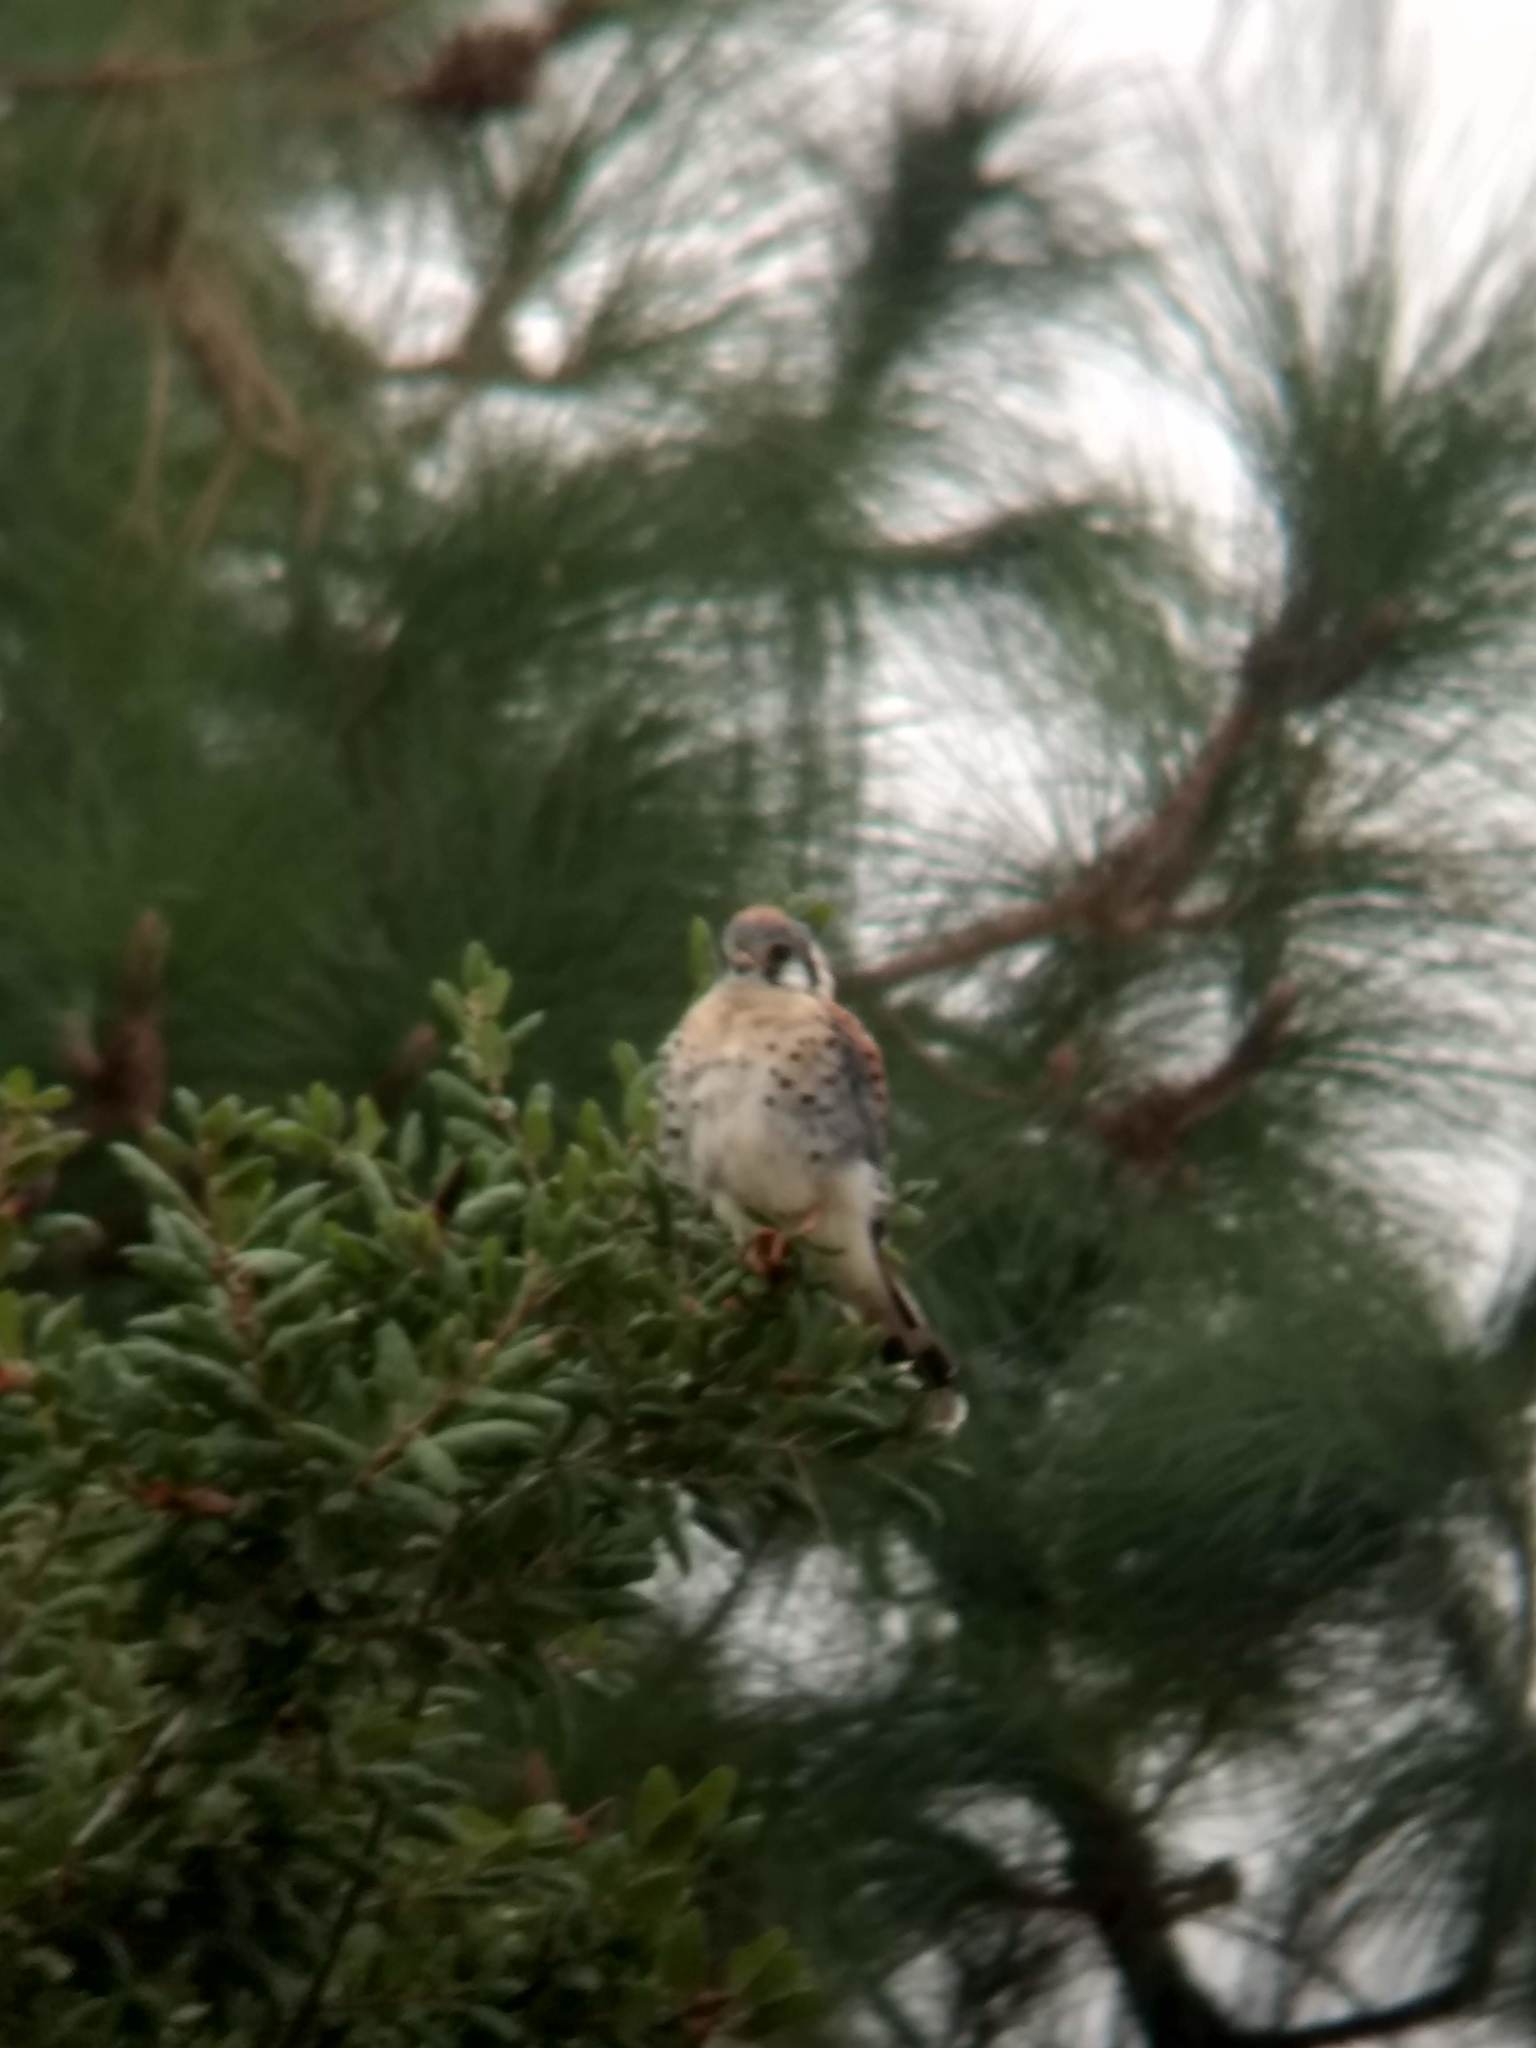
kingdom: Animalia
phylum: Chordata
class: Aves
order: Falconiformes
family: Falconidae
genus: Falco
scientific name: Falco sparverius
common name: American kestrel
